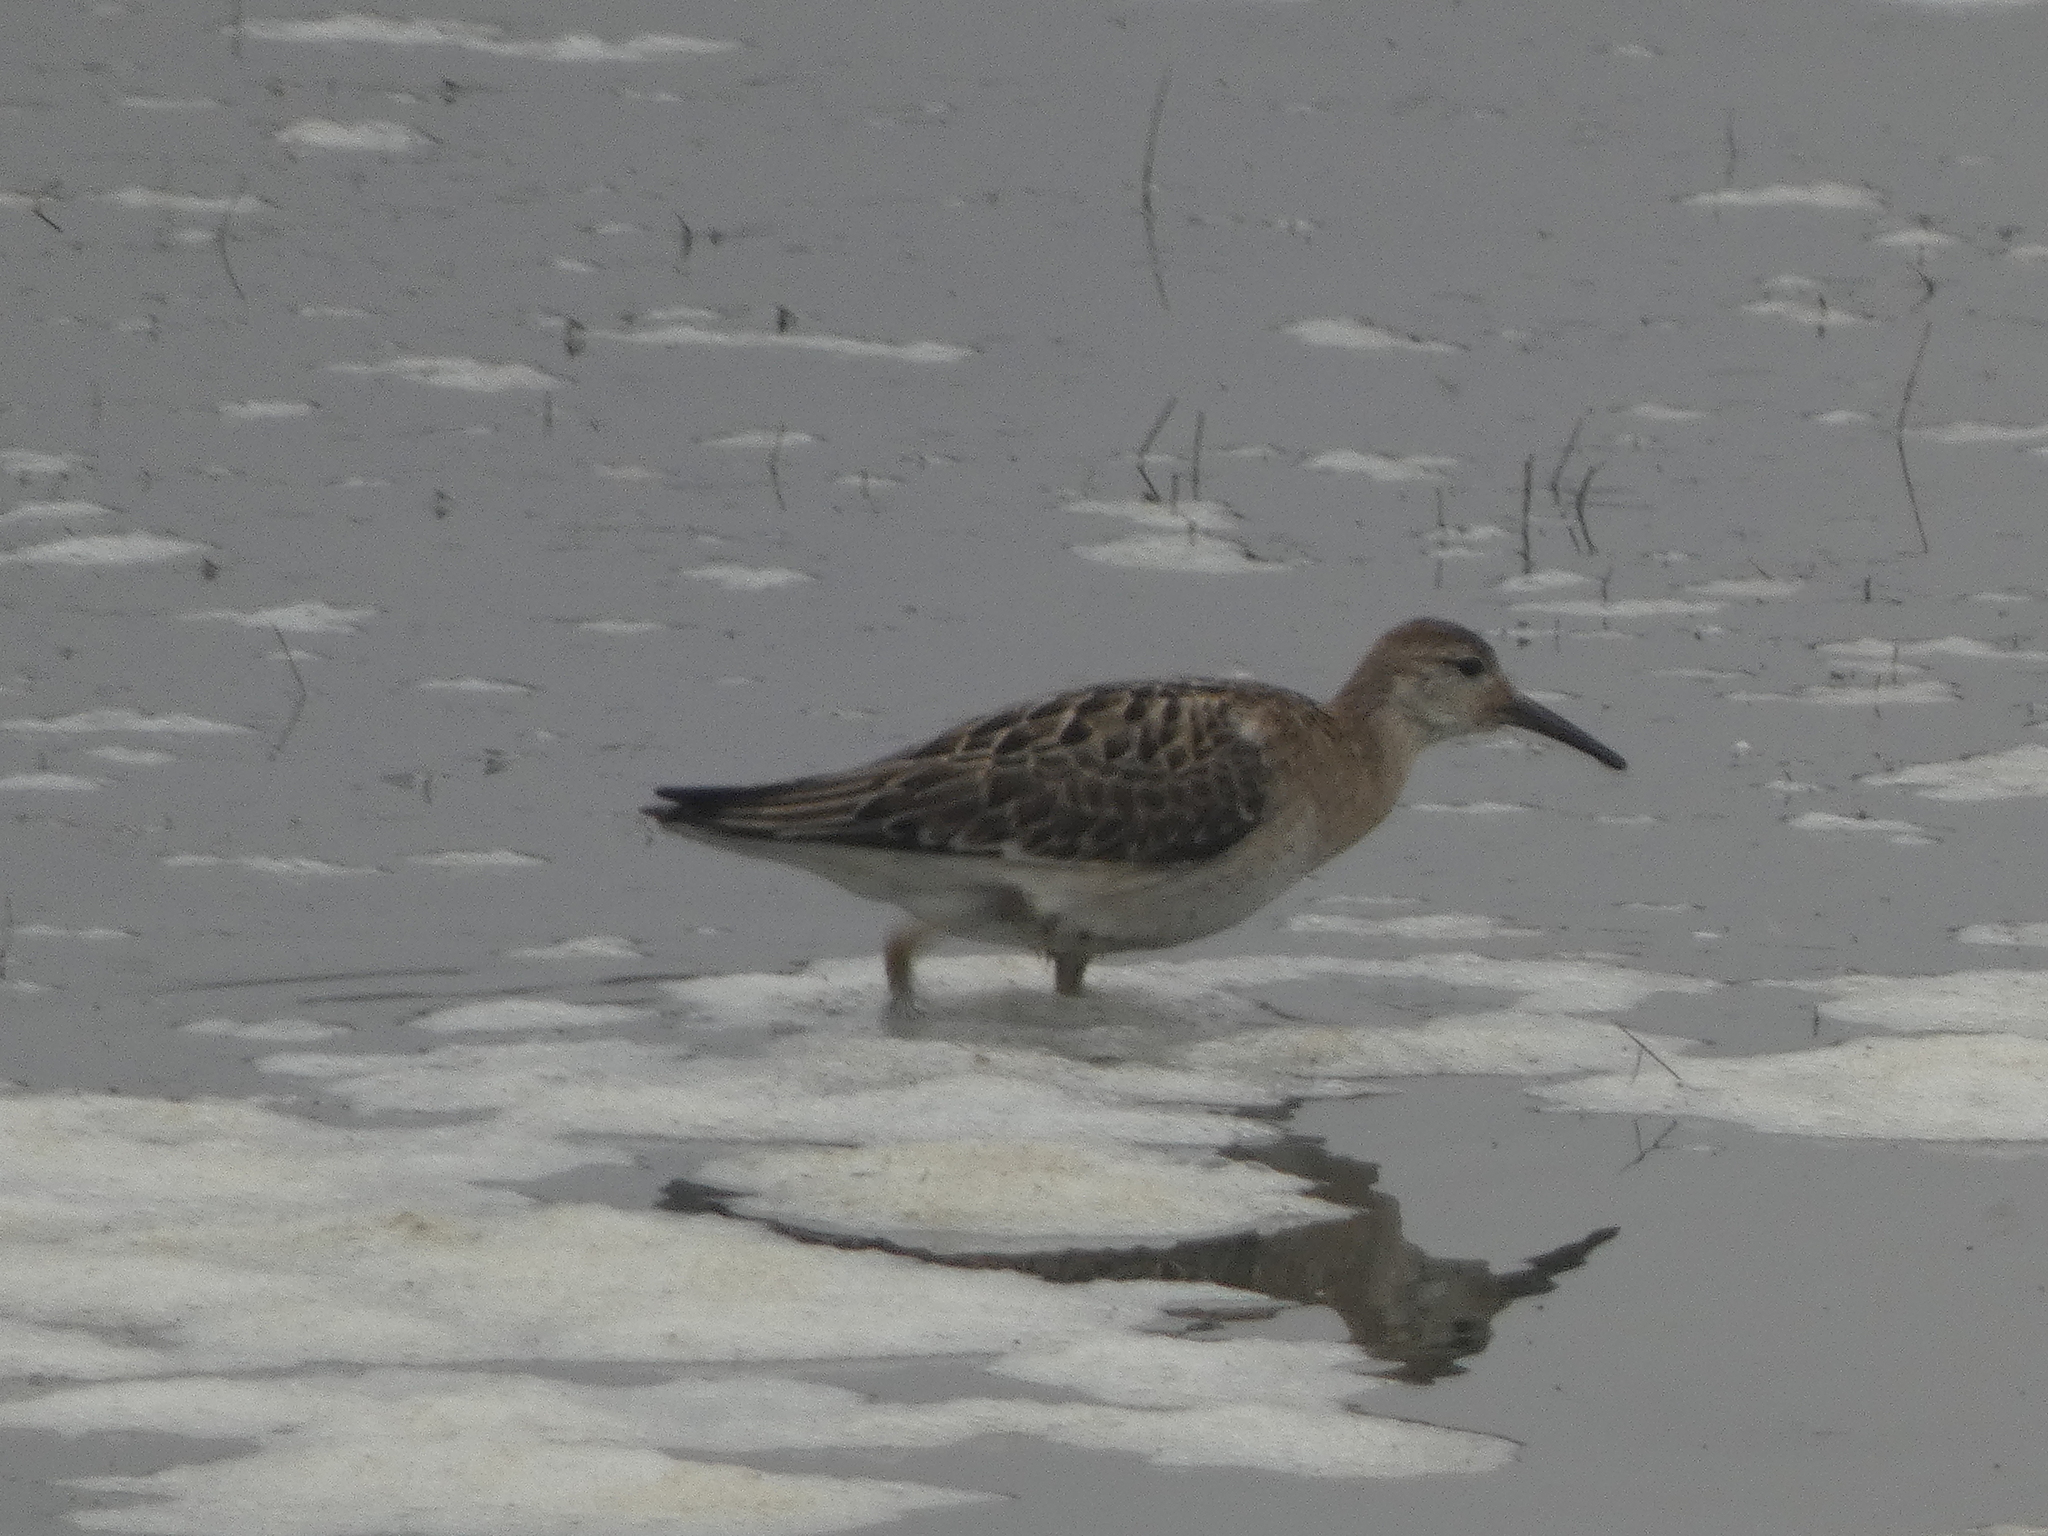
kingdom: Animalia
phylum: Chordata
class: Aves
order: Charadriiformes
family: Scolopacidae
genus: Calidris
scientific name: Calidris pugnax
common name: Ruff
